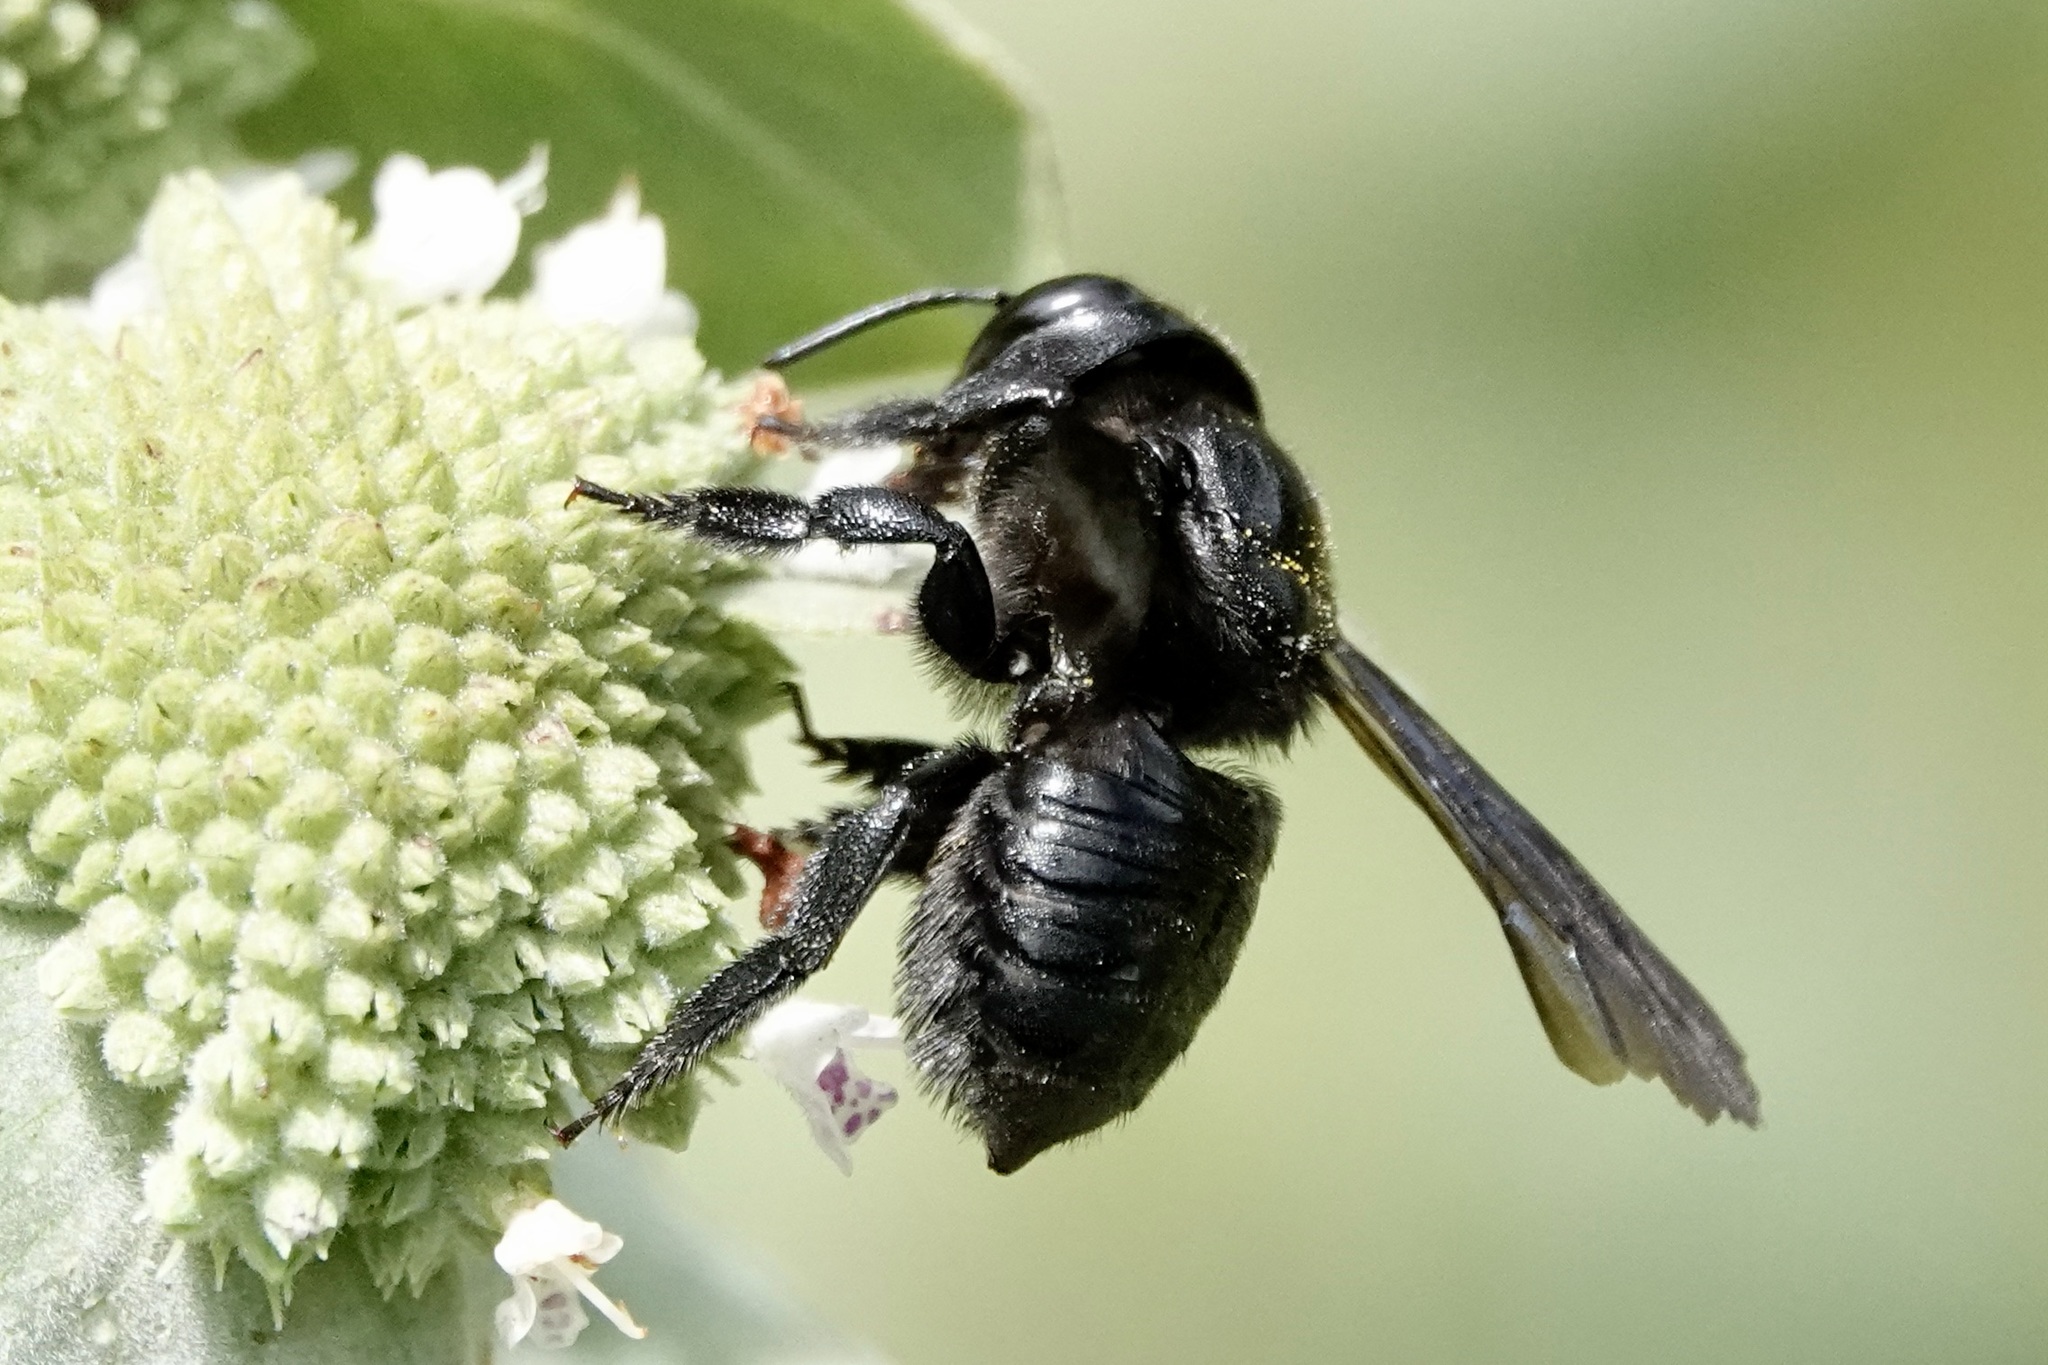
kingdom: Animalia
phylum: Arthropoda
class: Insecta
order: Hymenoptera
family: Megachilidae
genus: Megachile
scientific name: Megachile xylocopoides
